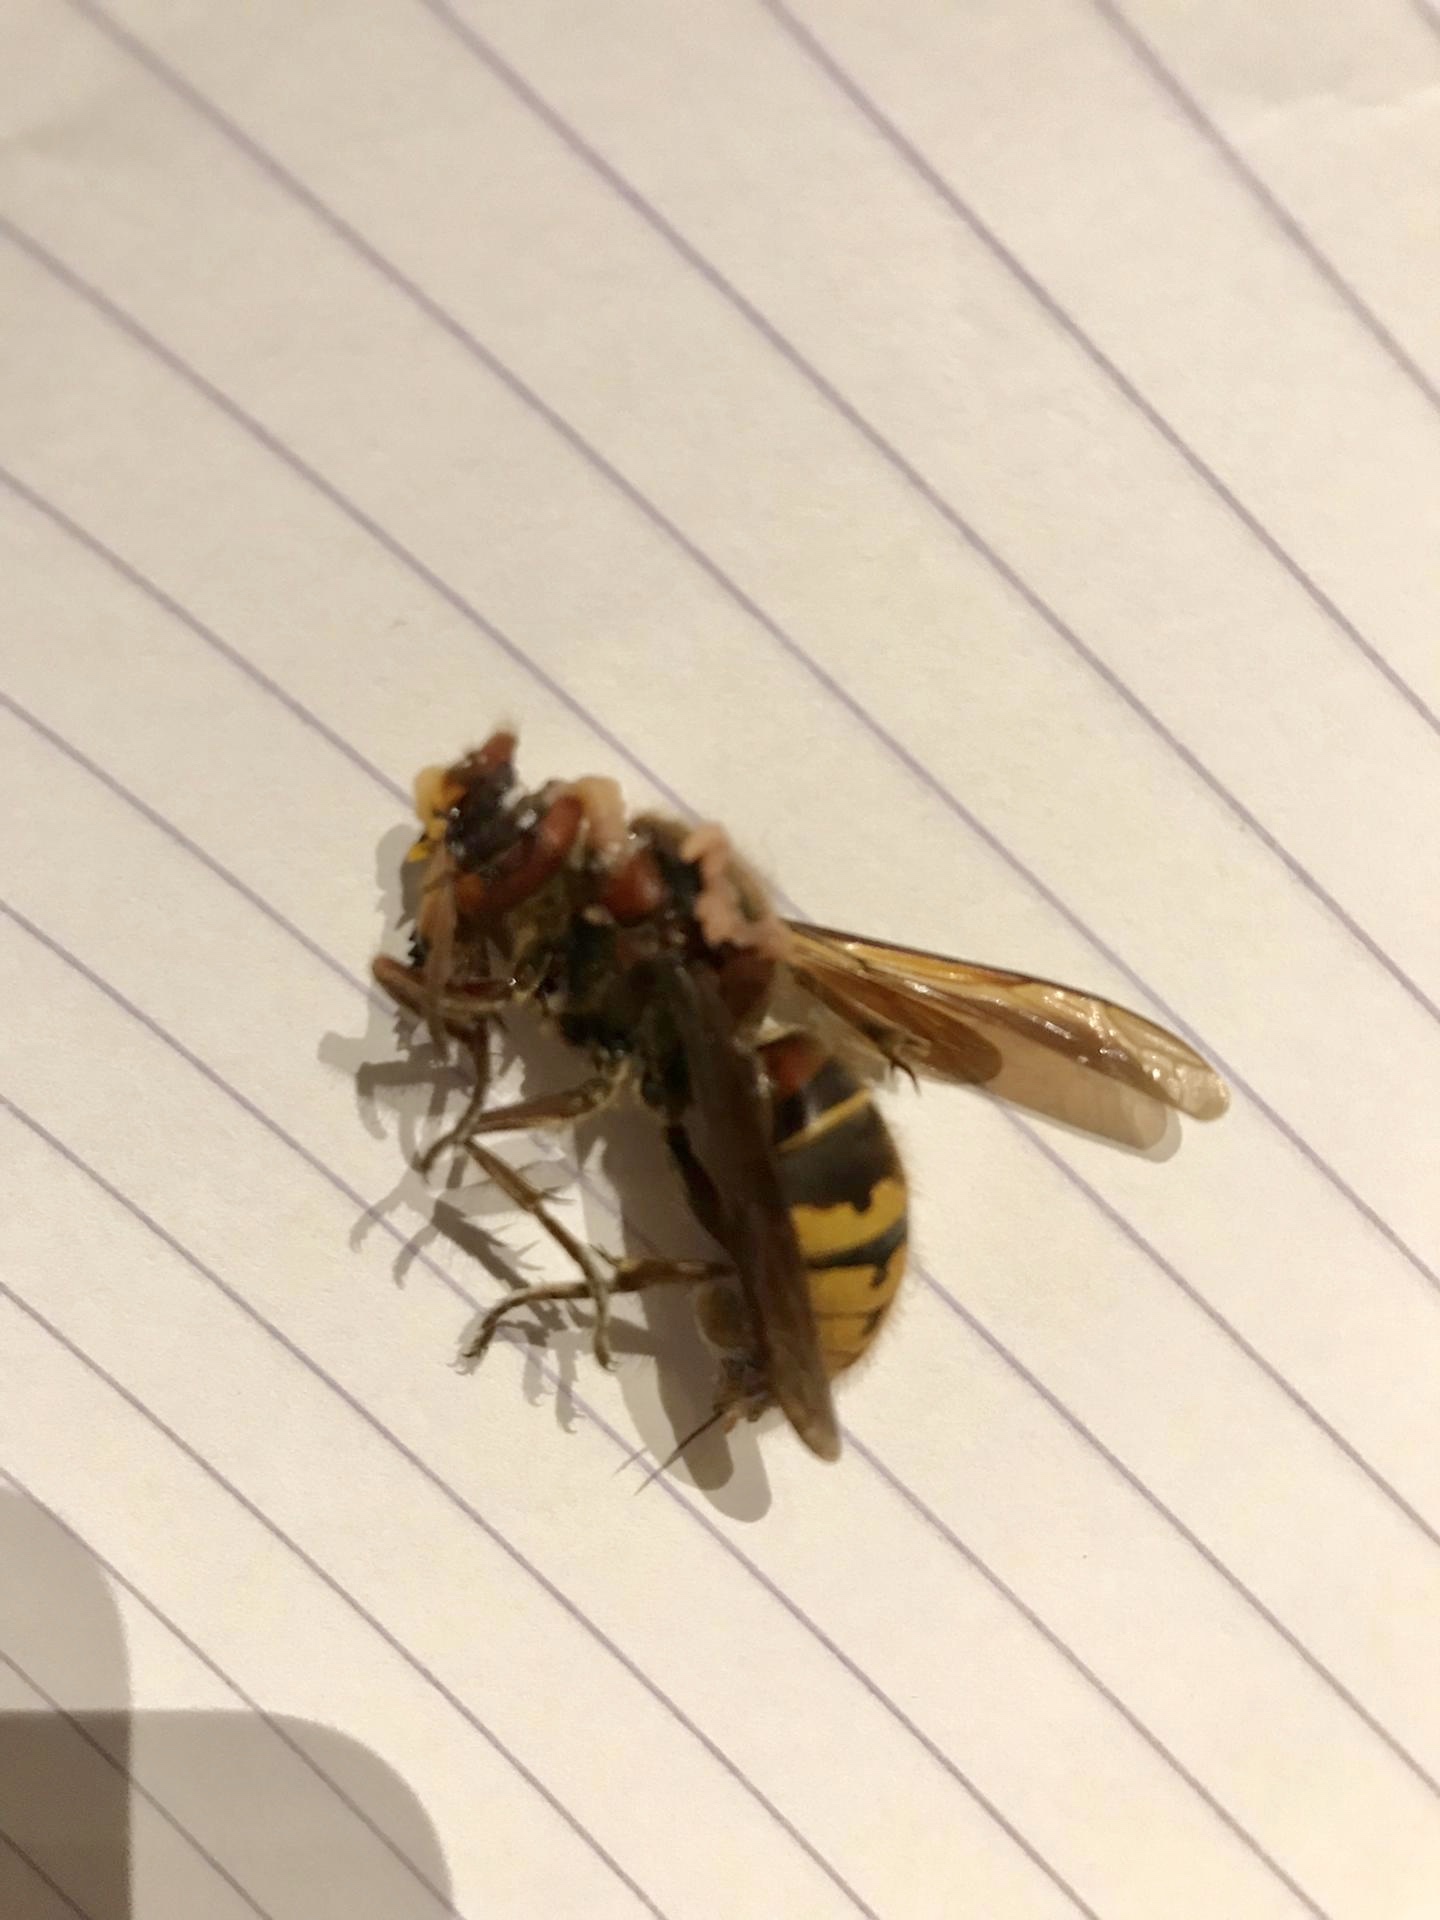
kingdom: Animalia
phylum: Arthropoda
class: Insecta
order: Hymenoptera
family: Vespidae
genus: Vespa
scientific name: Vespa crabro
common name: Hornet
